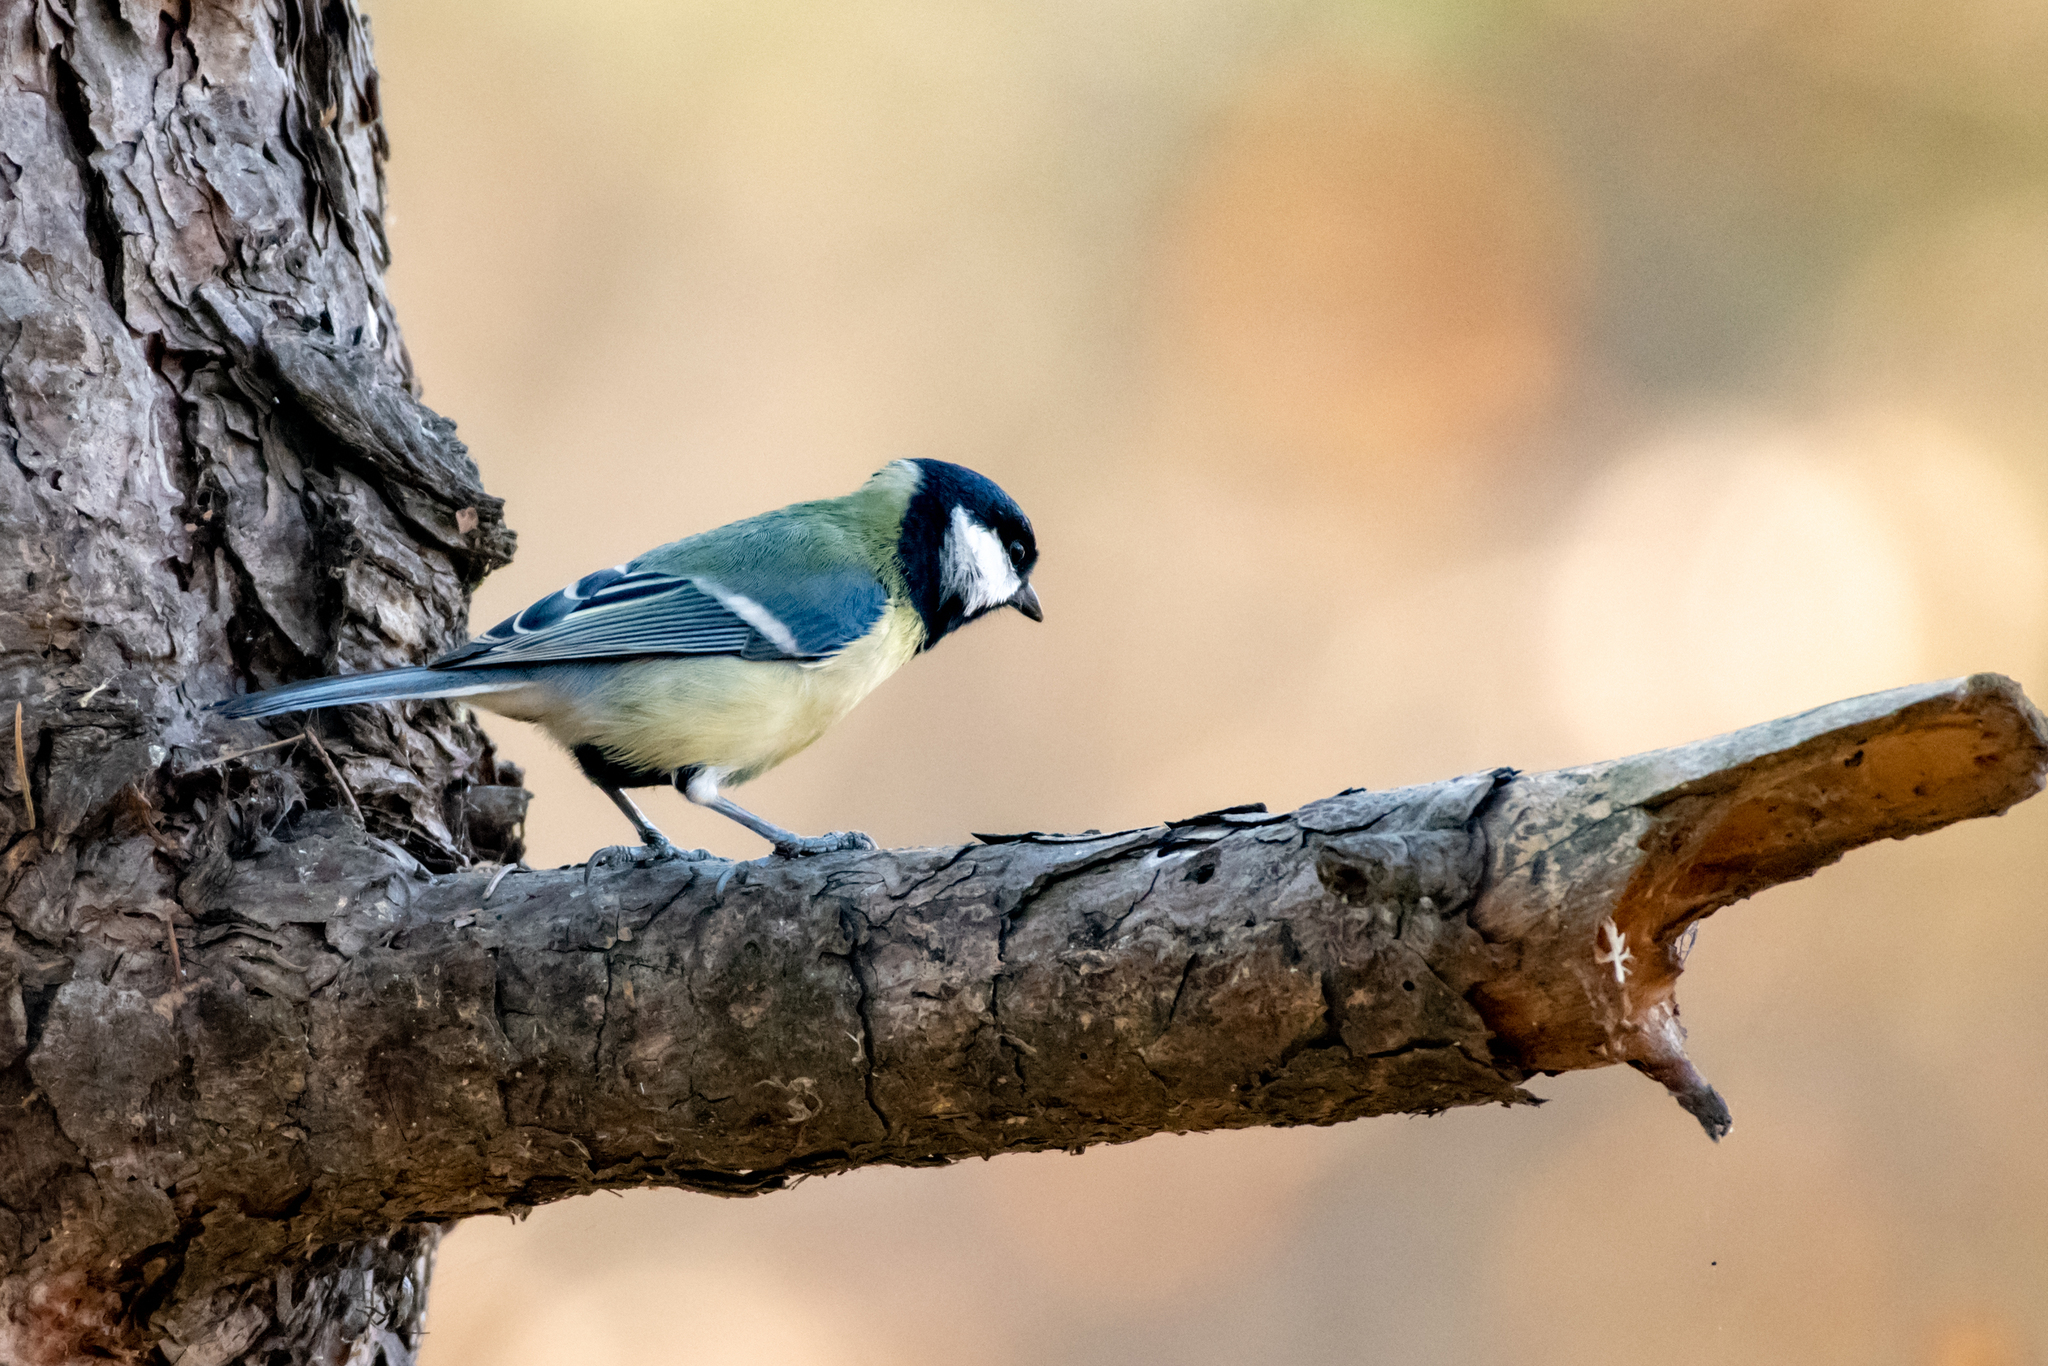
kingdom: Animalia
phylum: Chordata
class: Aves
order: Passeriformes
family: Paridae
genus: Parus
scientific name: Parus major
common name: Great tit
